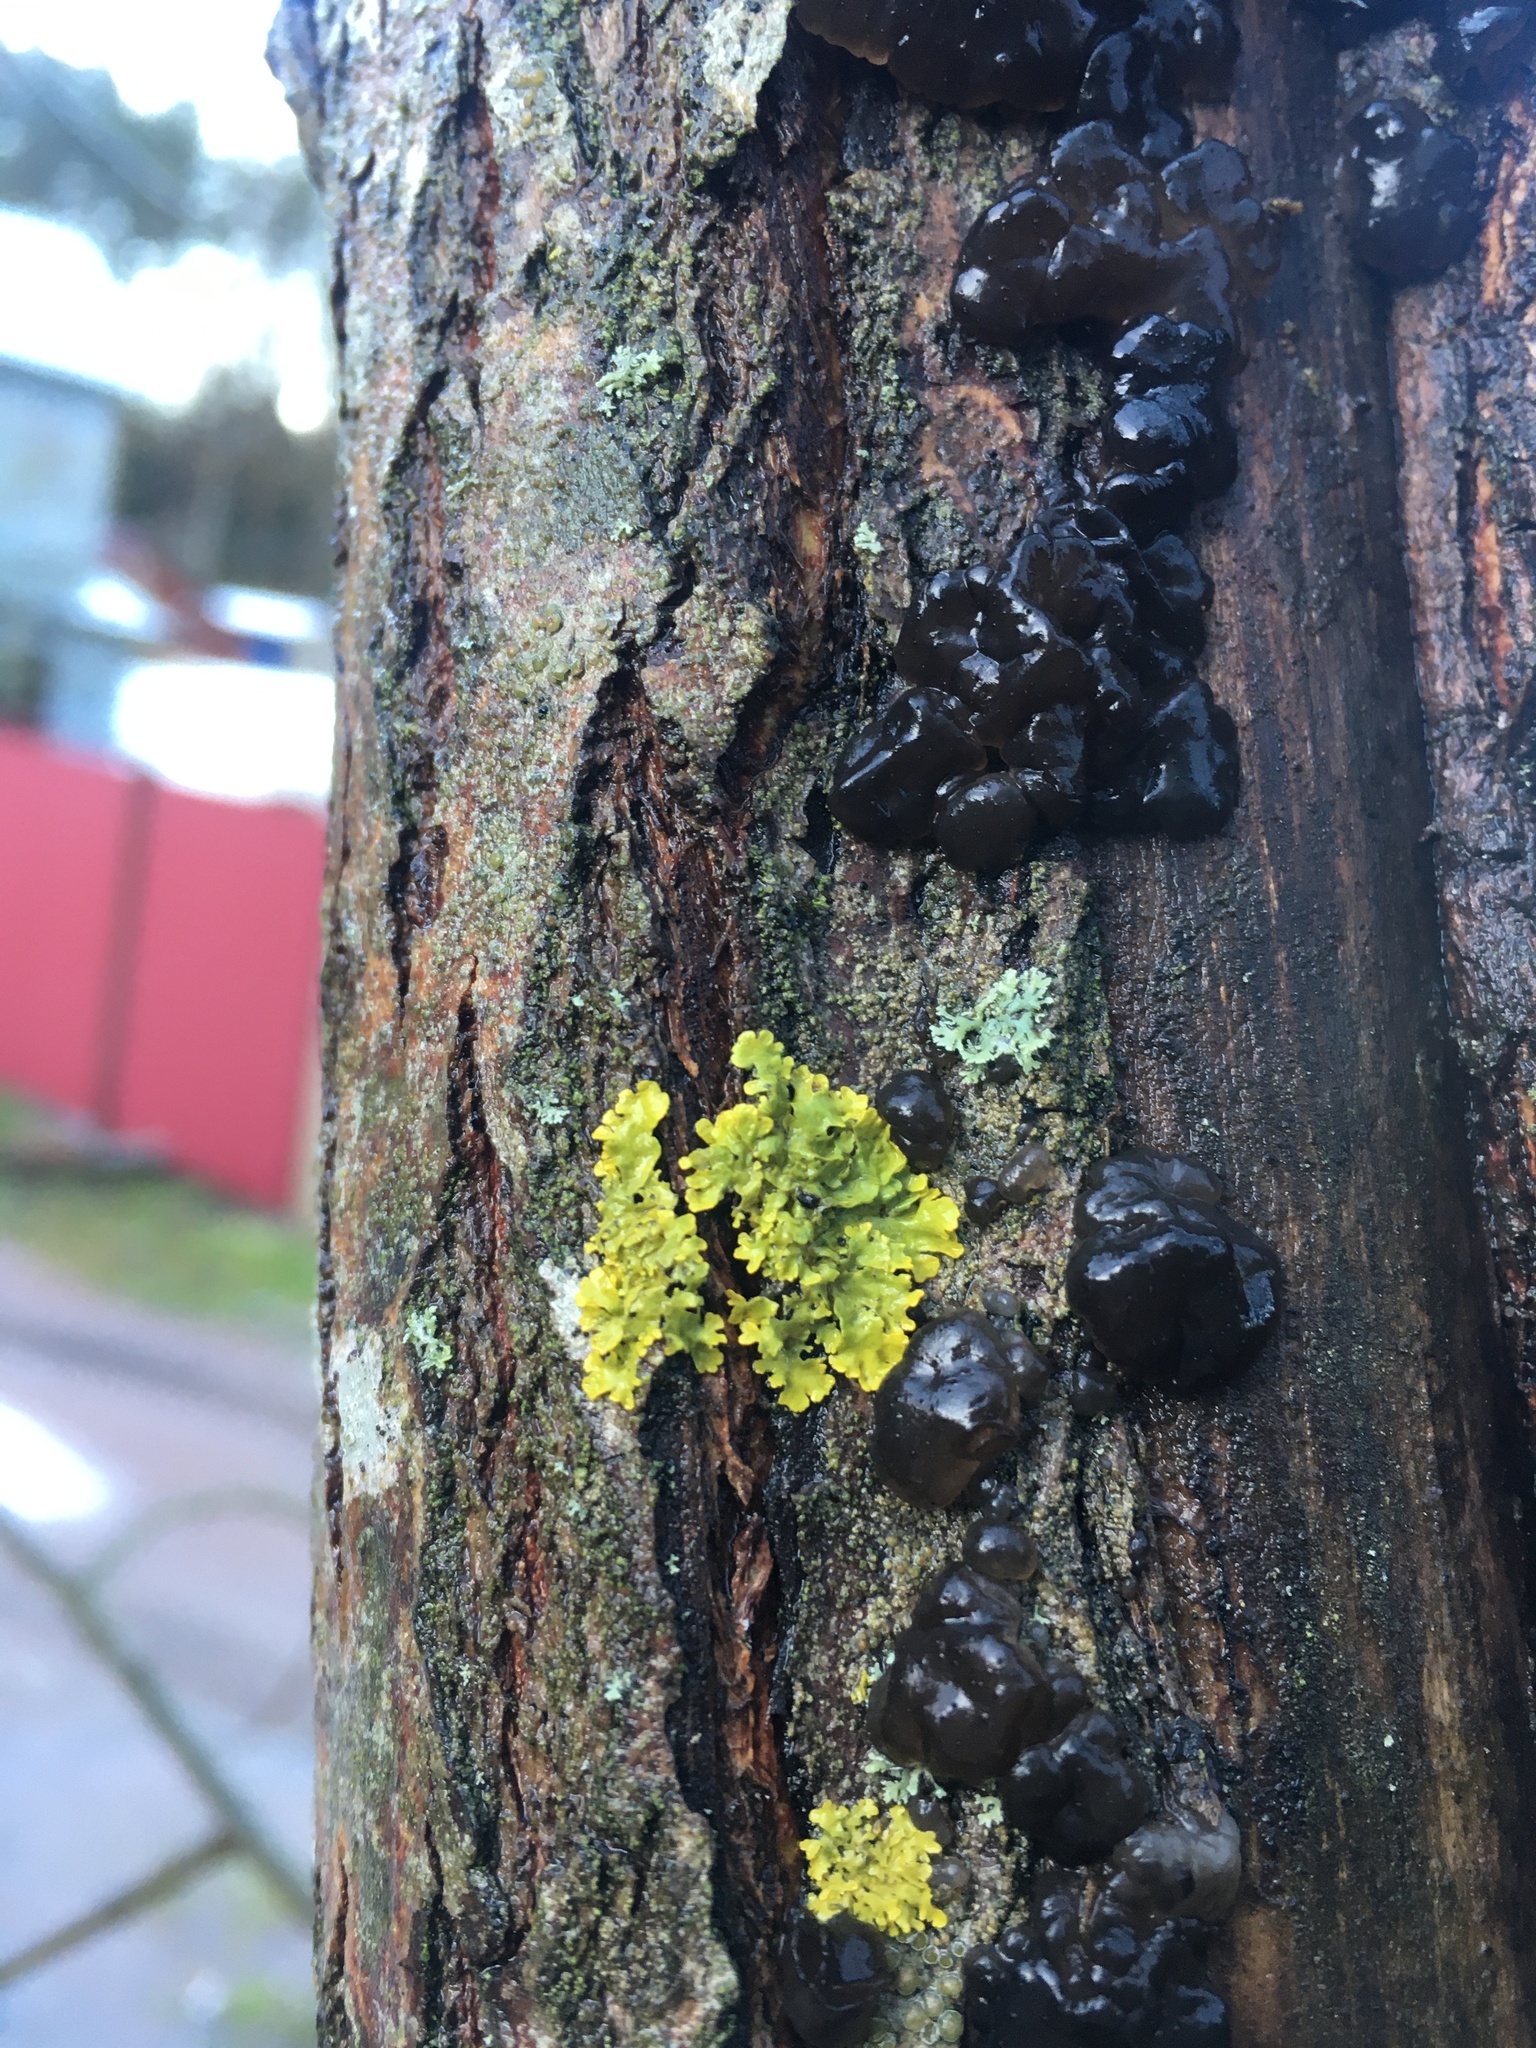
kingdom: Fungi
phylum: Ascomycota
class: Lecanoromycetes
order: Teloschistales
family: Teloschistaceae
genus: Xanthoria
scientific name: Xanthoria parietina
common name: Common orange lichen
